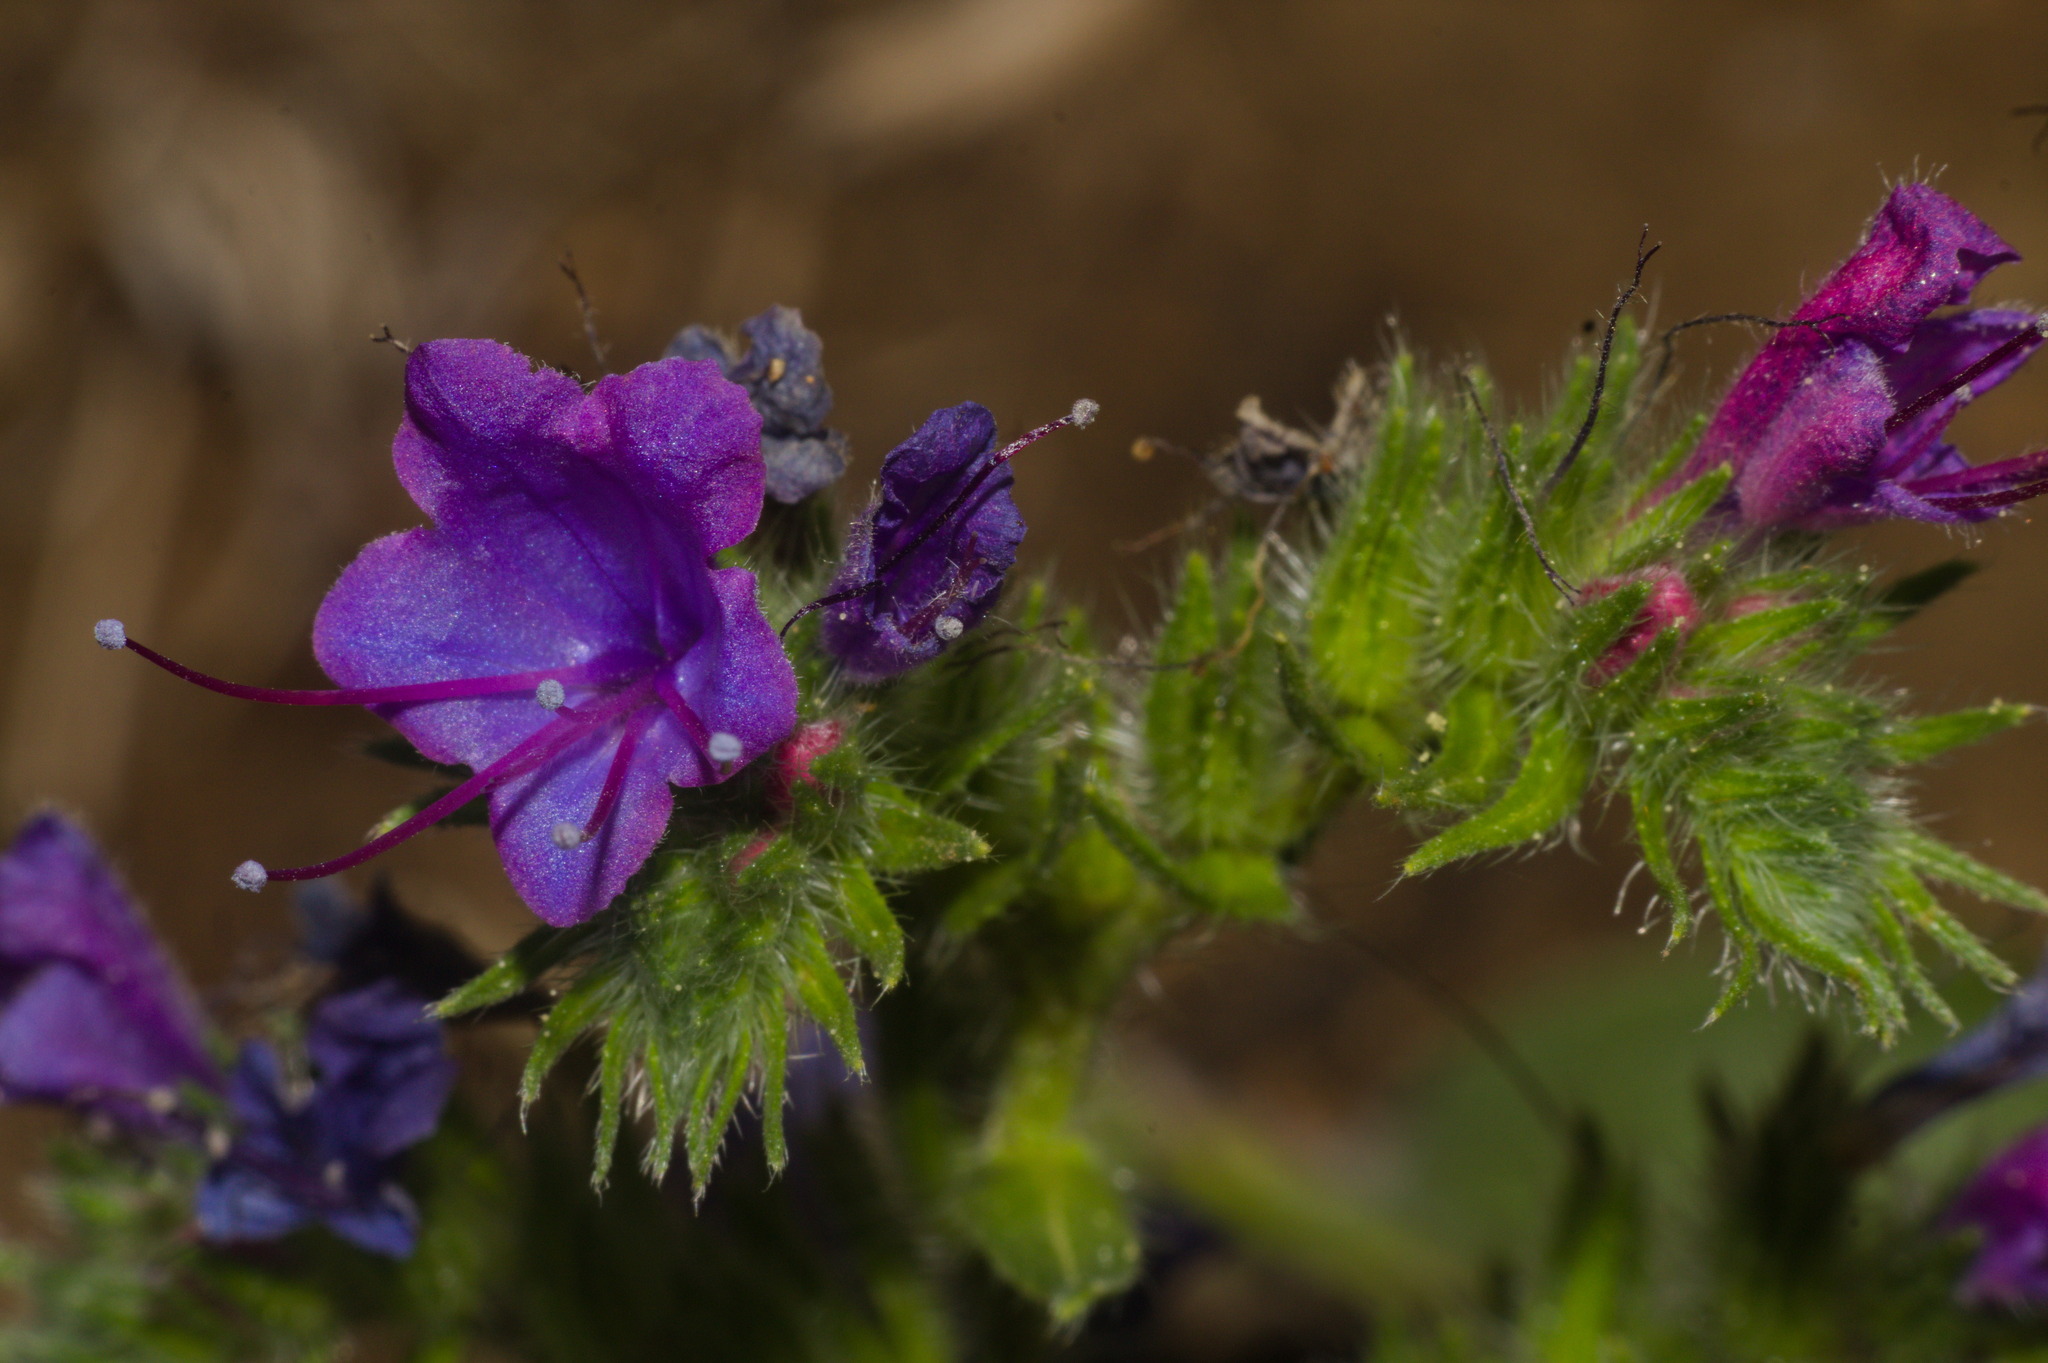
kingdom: Plantae
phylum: Tracheophyta
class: Magnoliopsida
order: Boraginales
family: Boraginaceae
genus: Echium
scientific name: Echium vulgare
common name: Common viper's bugloss
